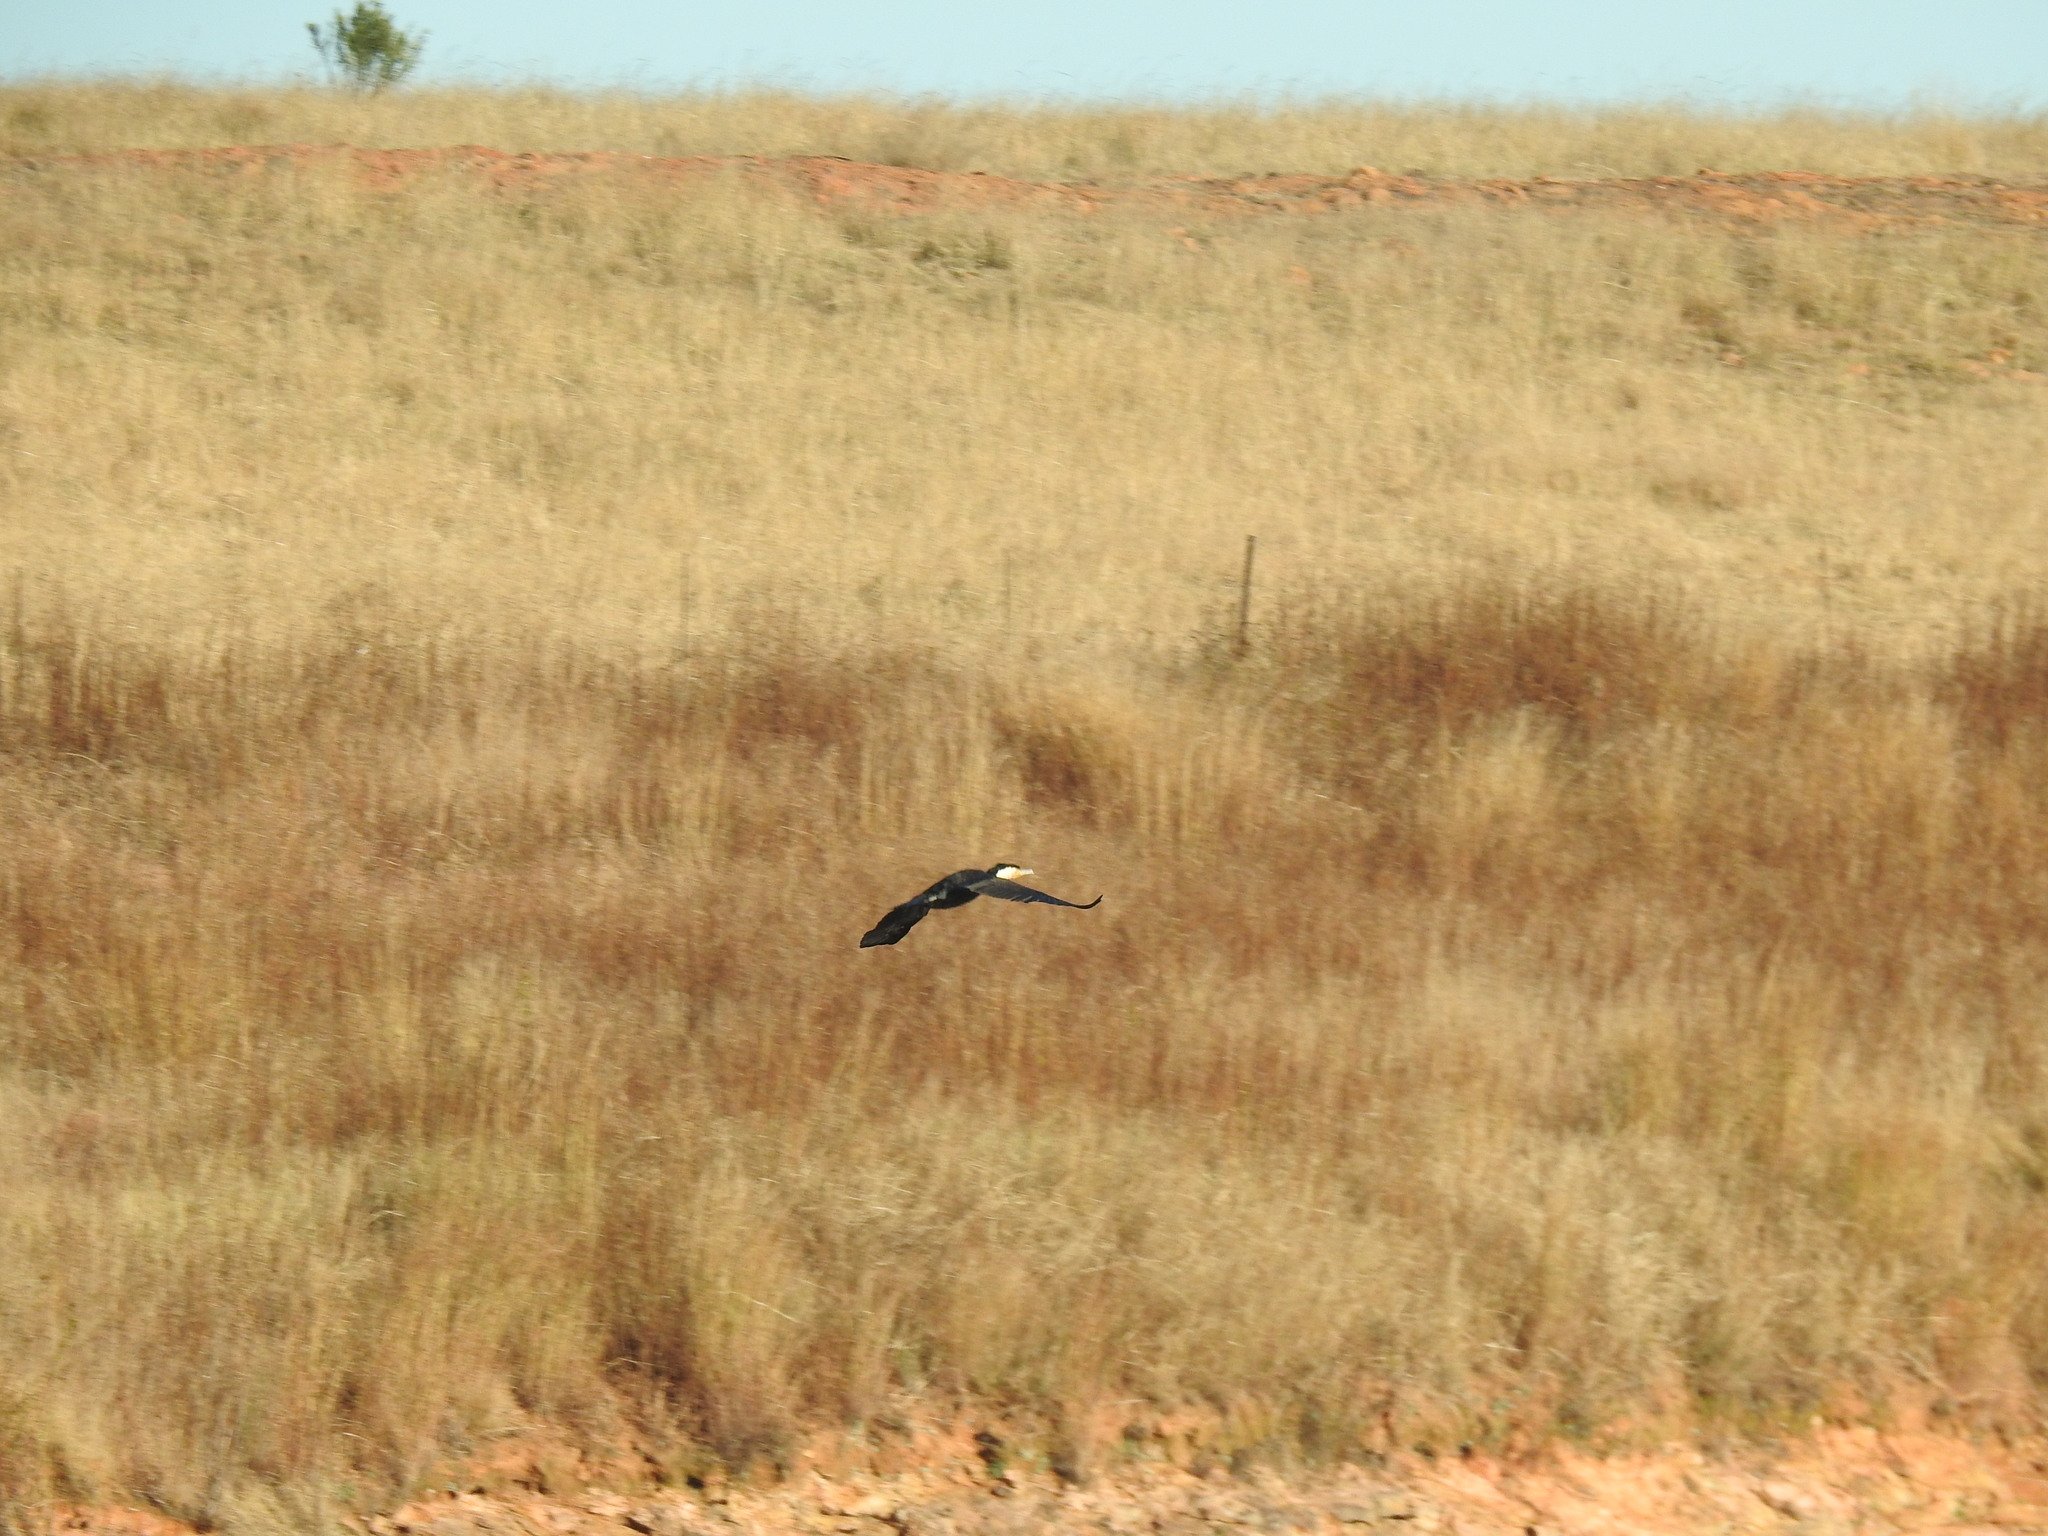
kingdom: Animalia
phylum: Chordata
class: Aves
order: Suliformes
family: Phalacrocoracidae
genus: Phalacrocorax
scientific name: Phalacrocorax carbo
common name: Great cormorant
